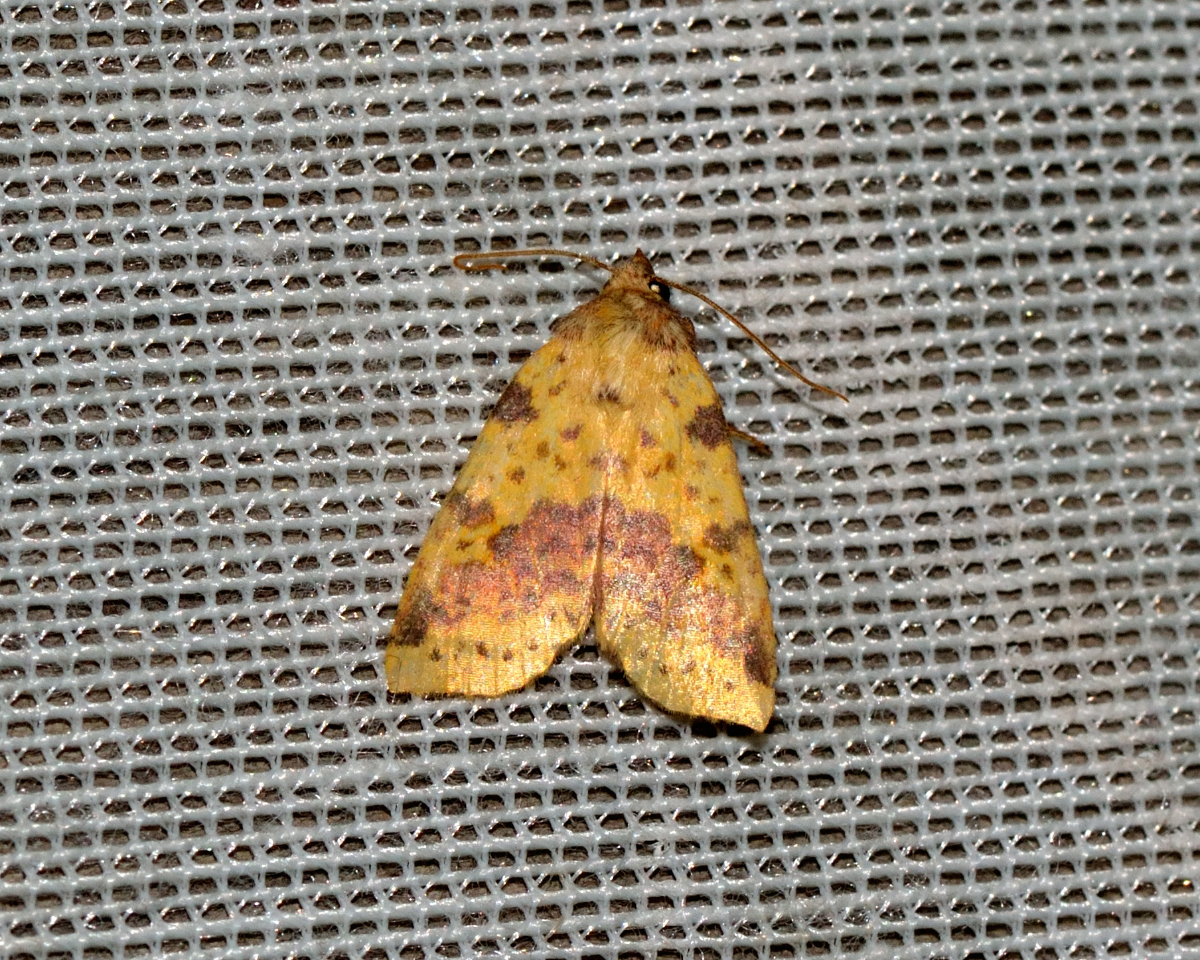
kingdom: Animalia
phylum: Arthropoda
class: Insecta
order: Lepidoptera
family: Noctuidae
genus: Xanthia
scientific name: Xanthia togata
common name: Pink-barred sallow
